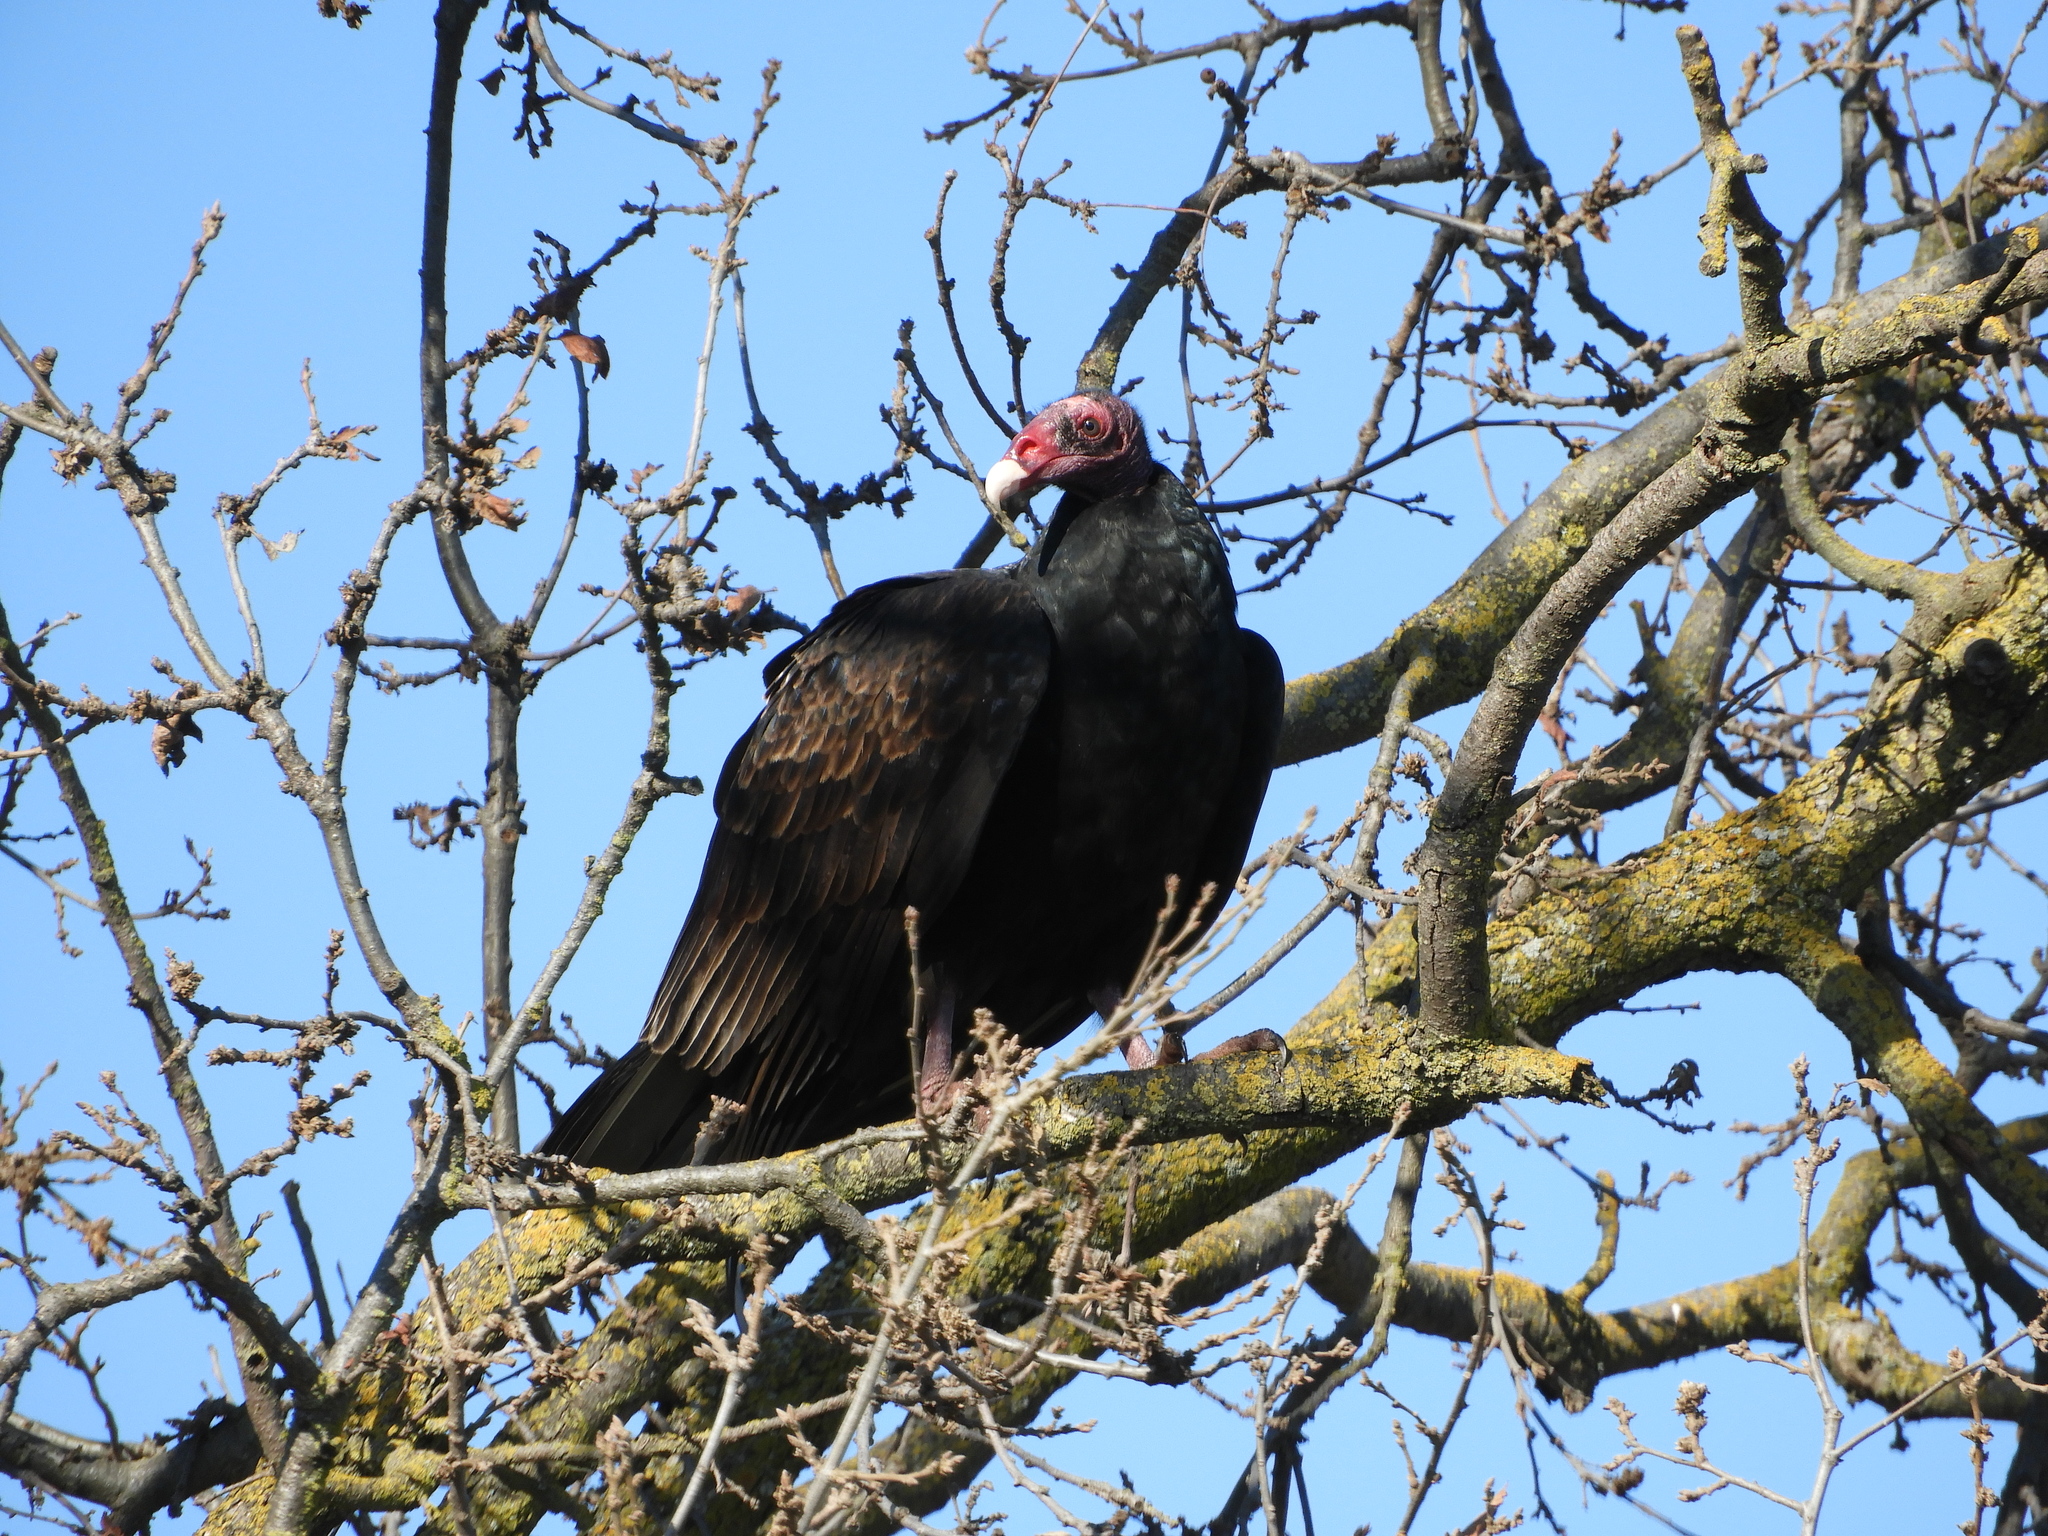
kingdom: Animalia
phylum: Chordata
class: Aves
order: Accipitriformes
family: Cathartidae
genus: Cathartes
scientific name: Cathartes aura
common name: Turkey vulture
